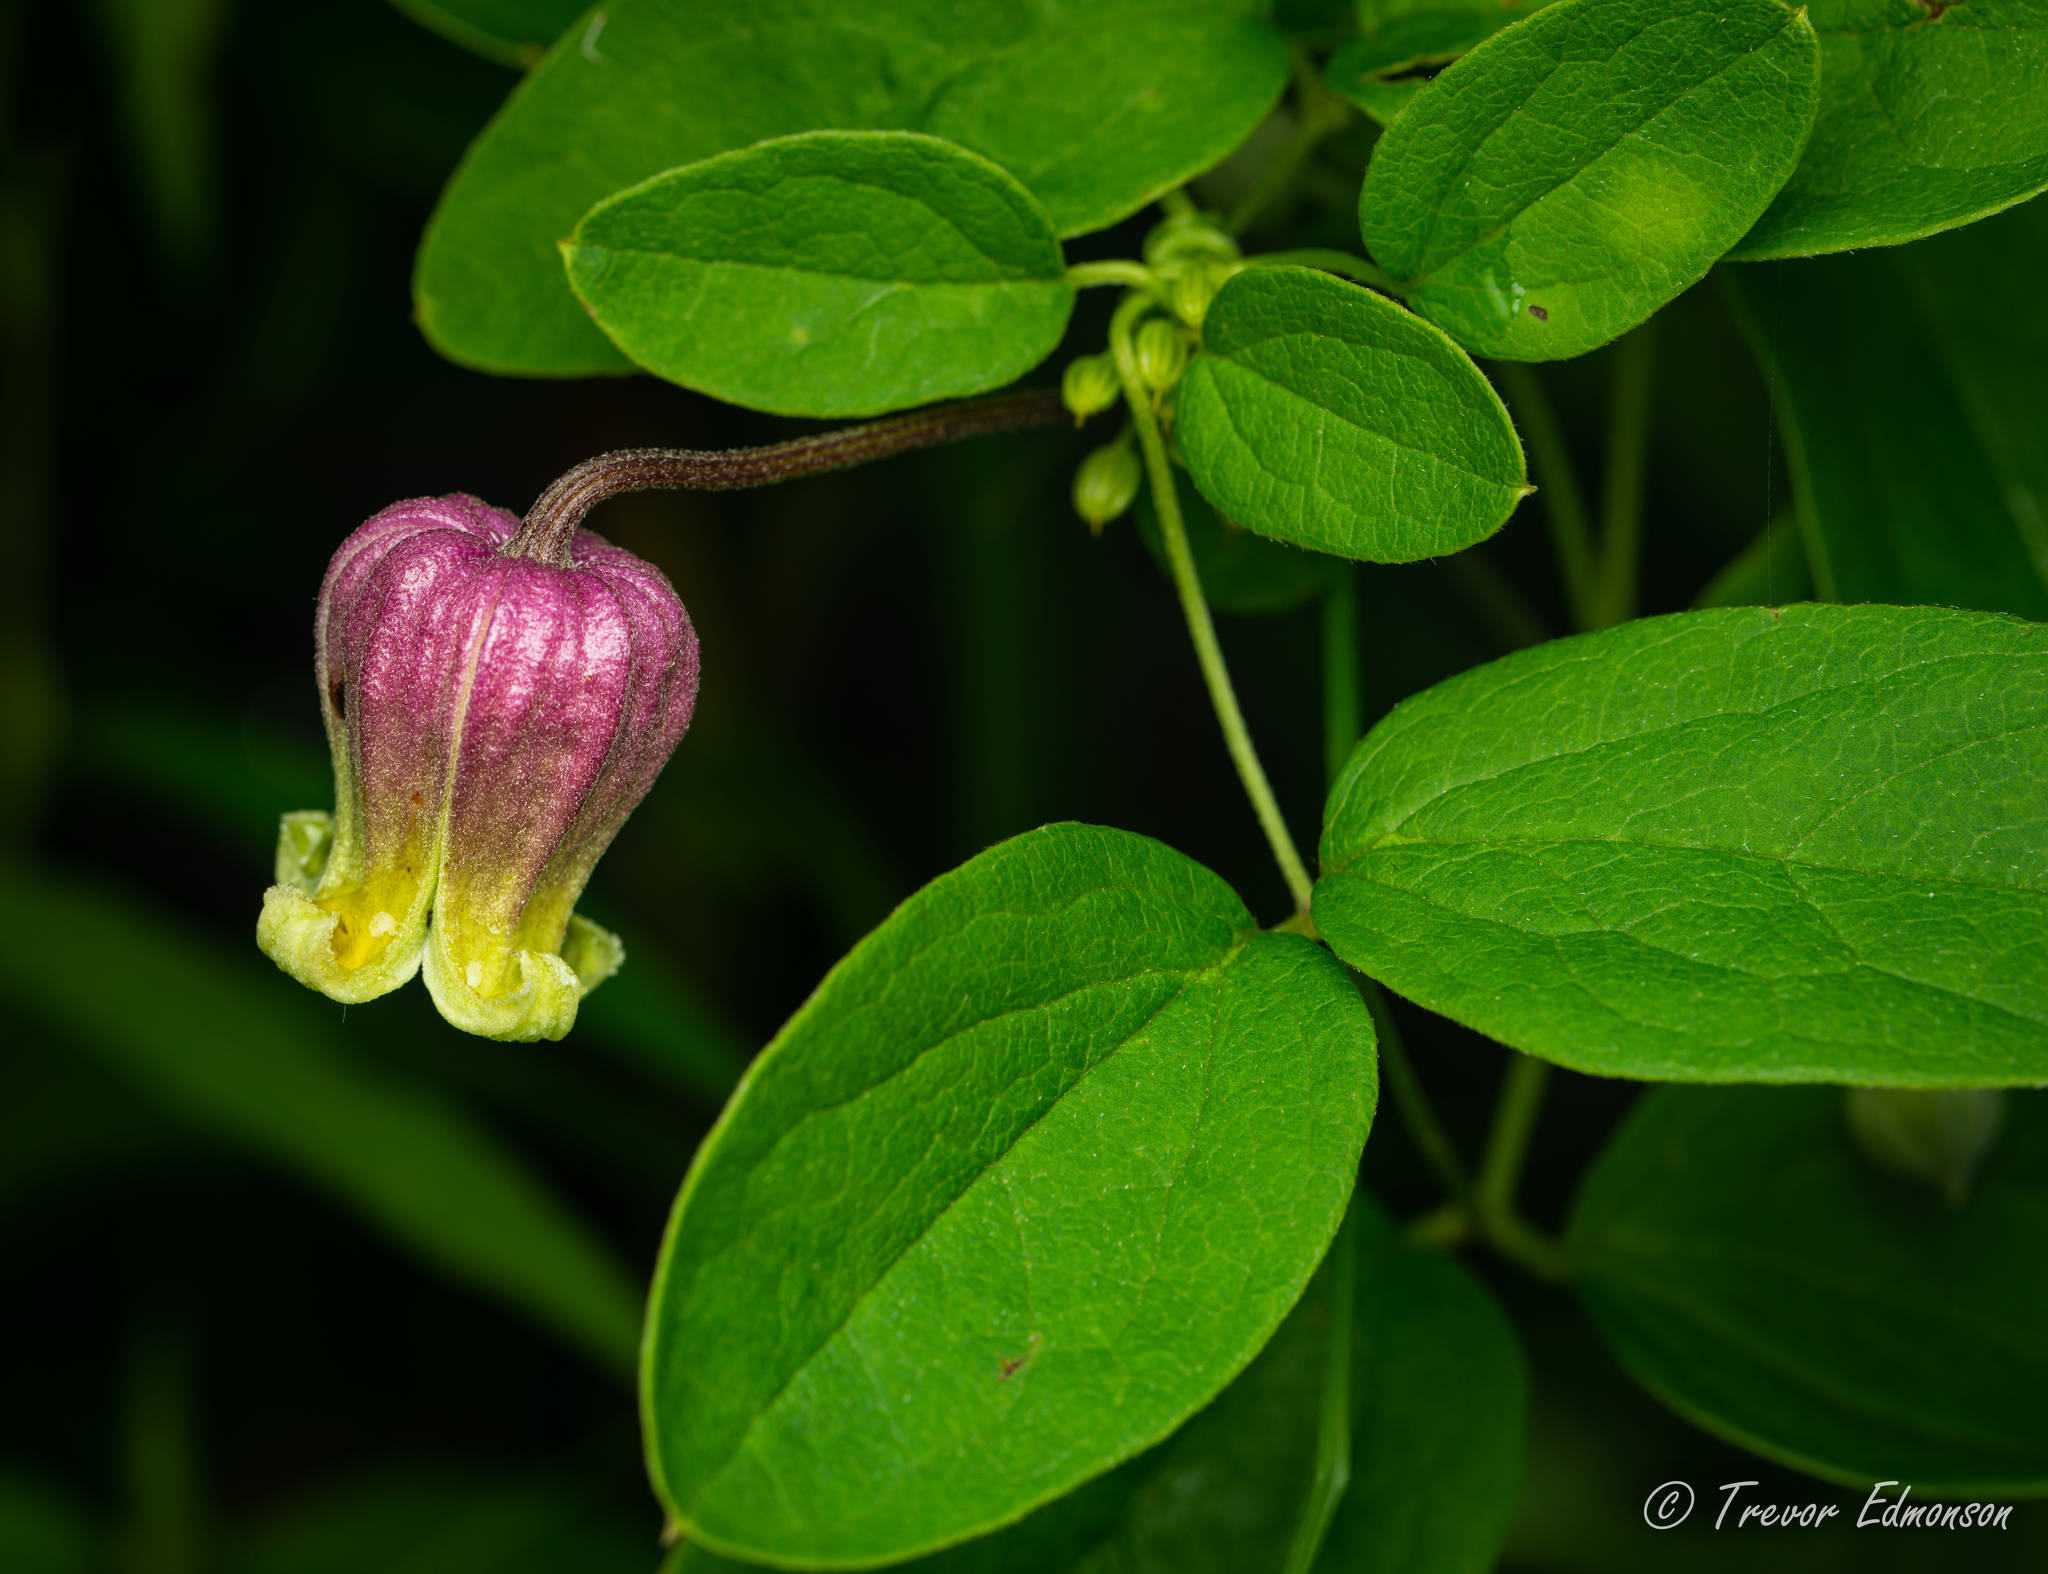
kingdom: Plantae
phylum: Tracheophyta
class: Magnoliopsida
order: Ranunculales
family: Ranunculaceae
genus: Clematis
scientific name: Clematis pitcheri
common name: Bellflower clematis
